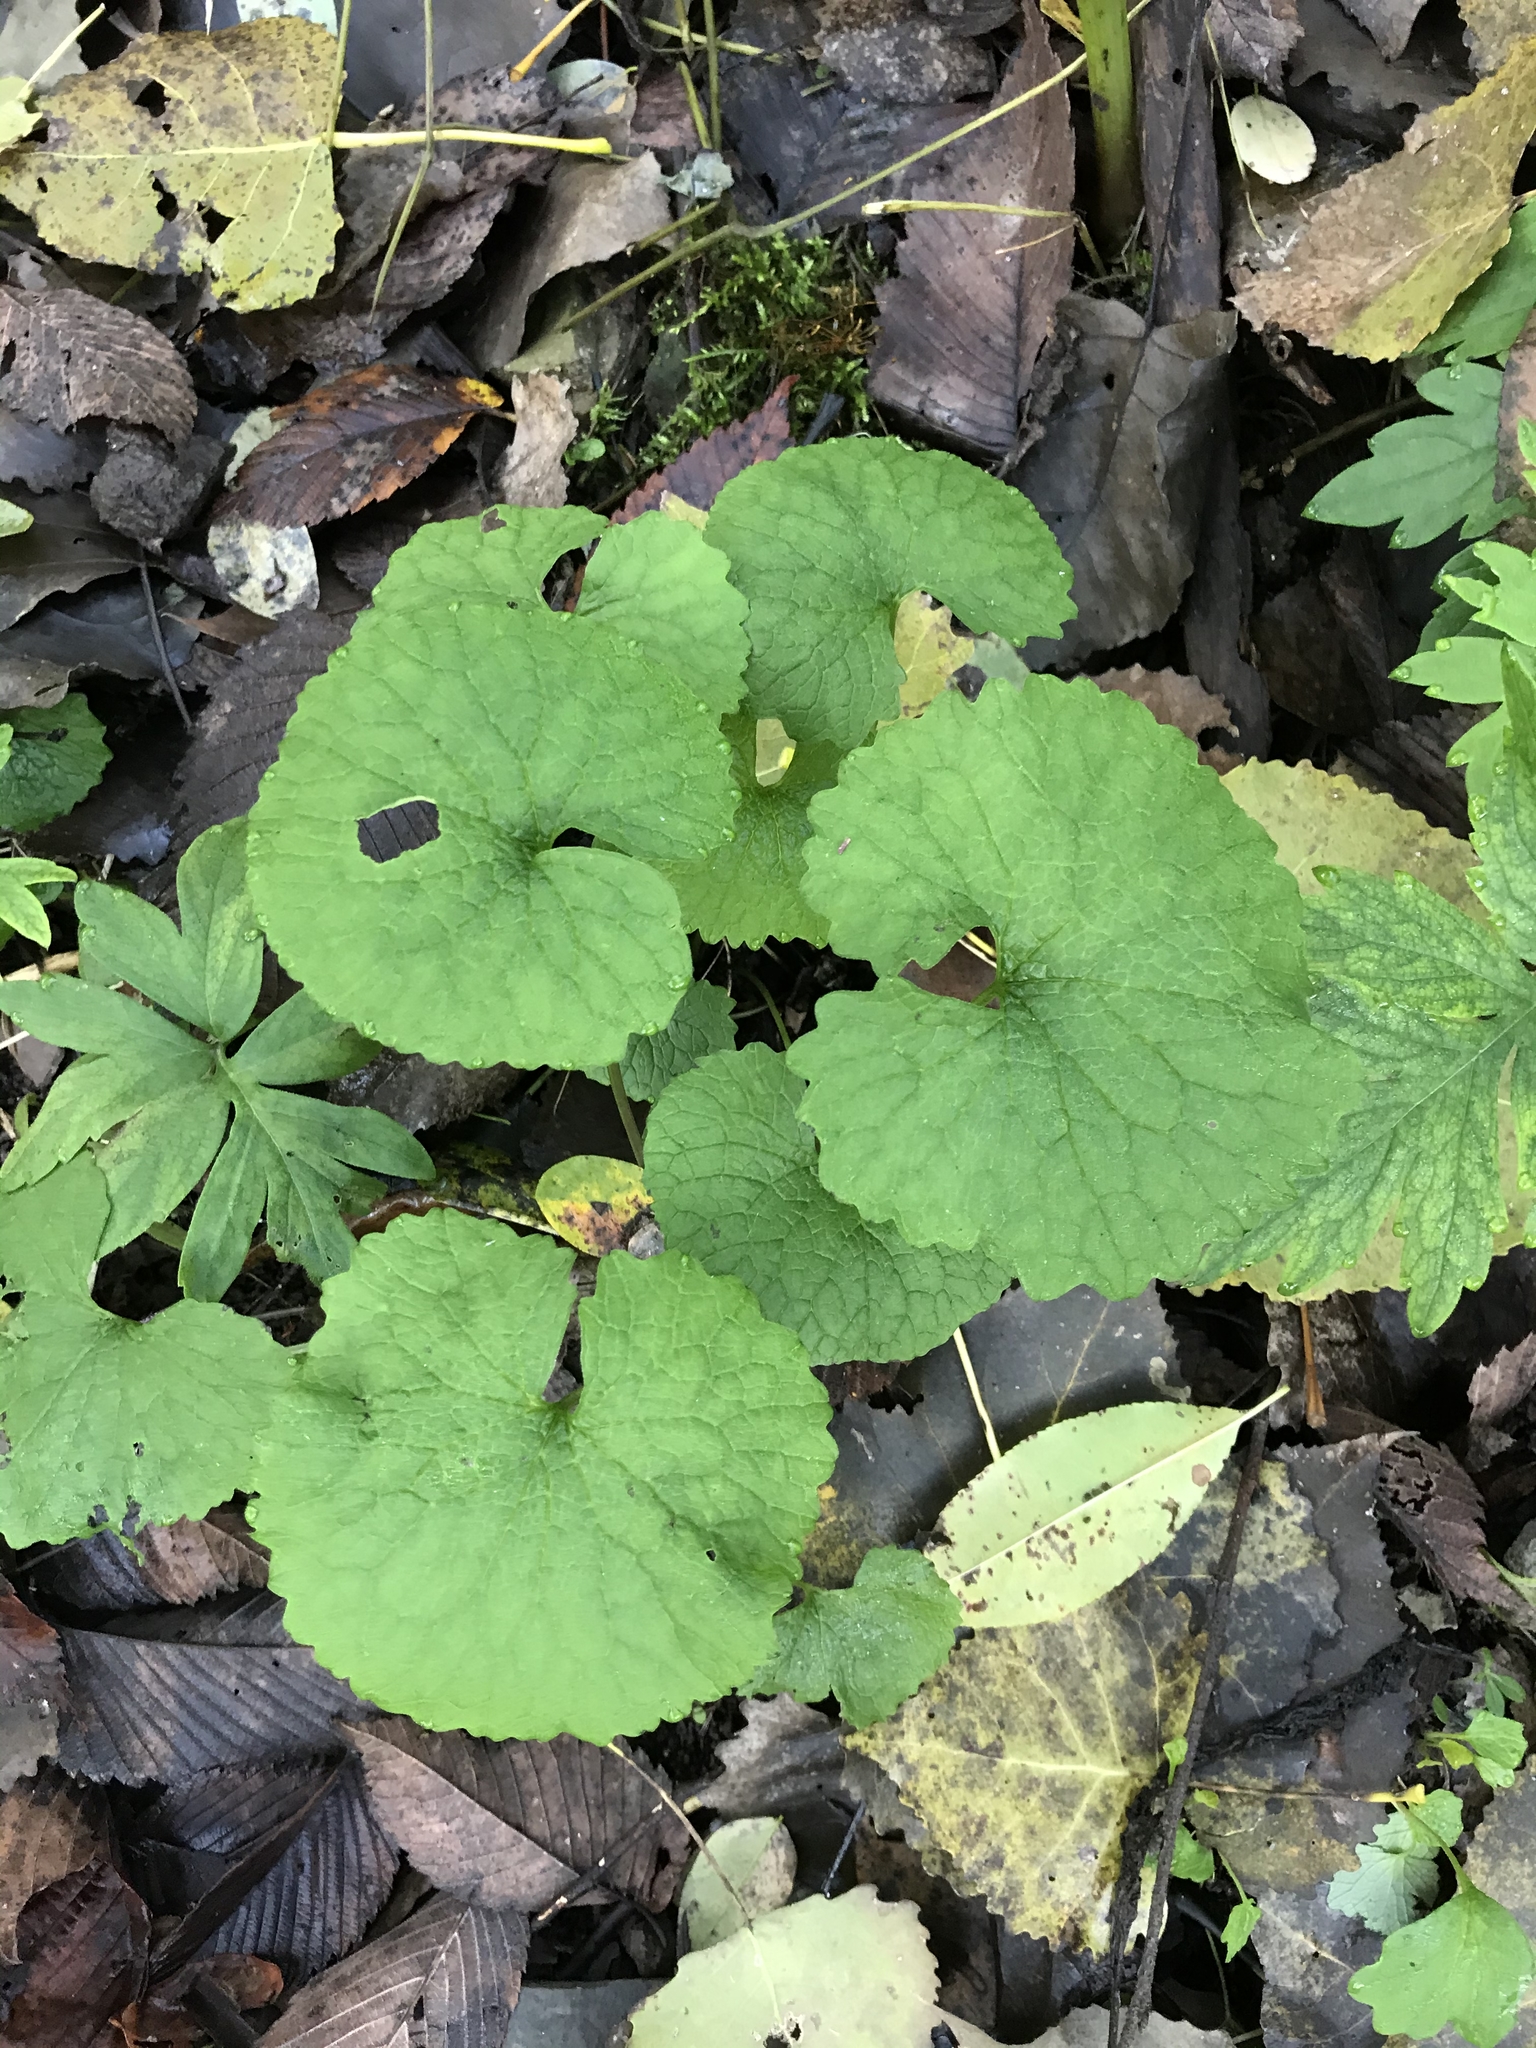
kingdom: Plantae
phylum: Tracheophyta
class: Magnoliopsida
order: Brassicales
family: Brassicaceae
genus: Alliaria
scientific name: Alliaria petiolata
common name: Garlic mustard
